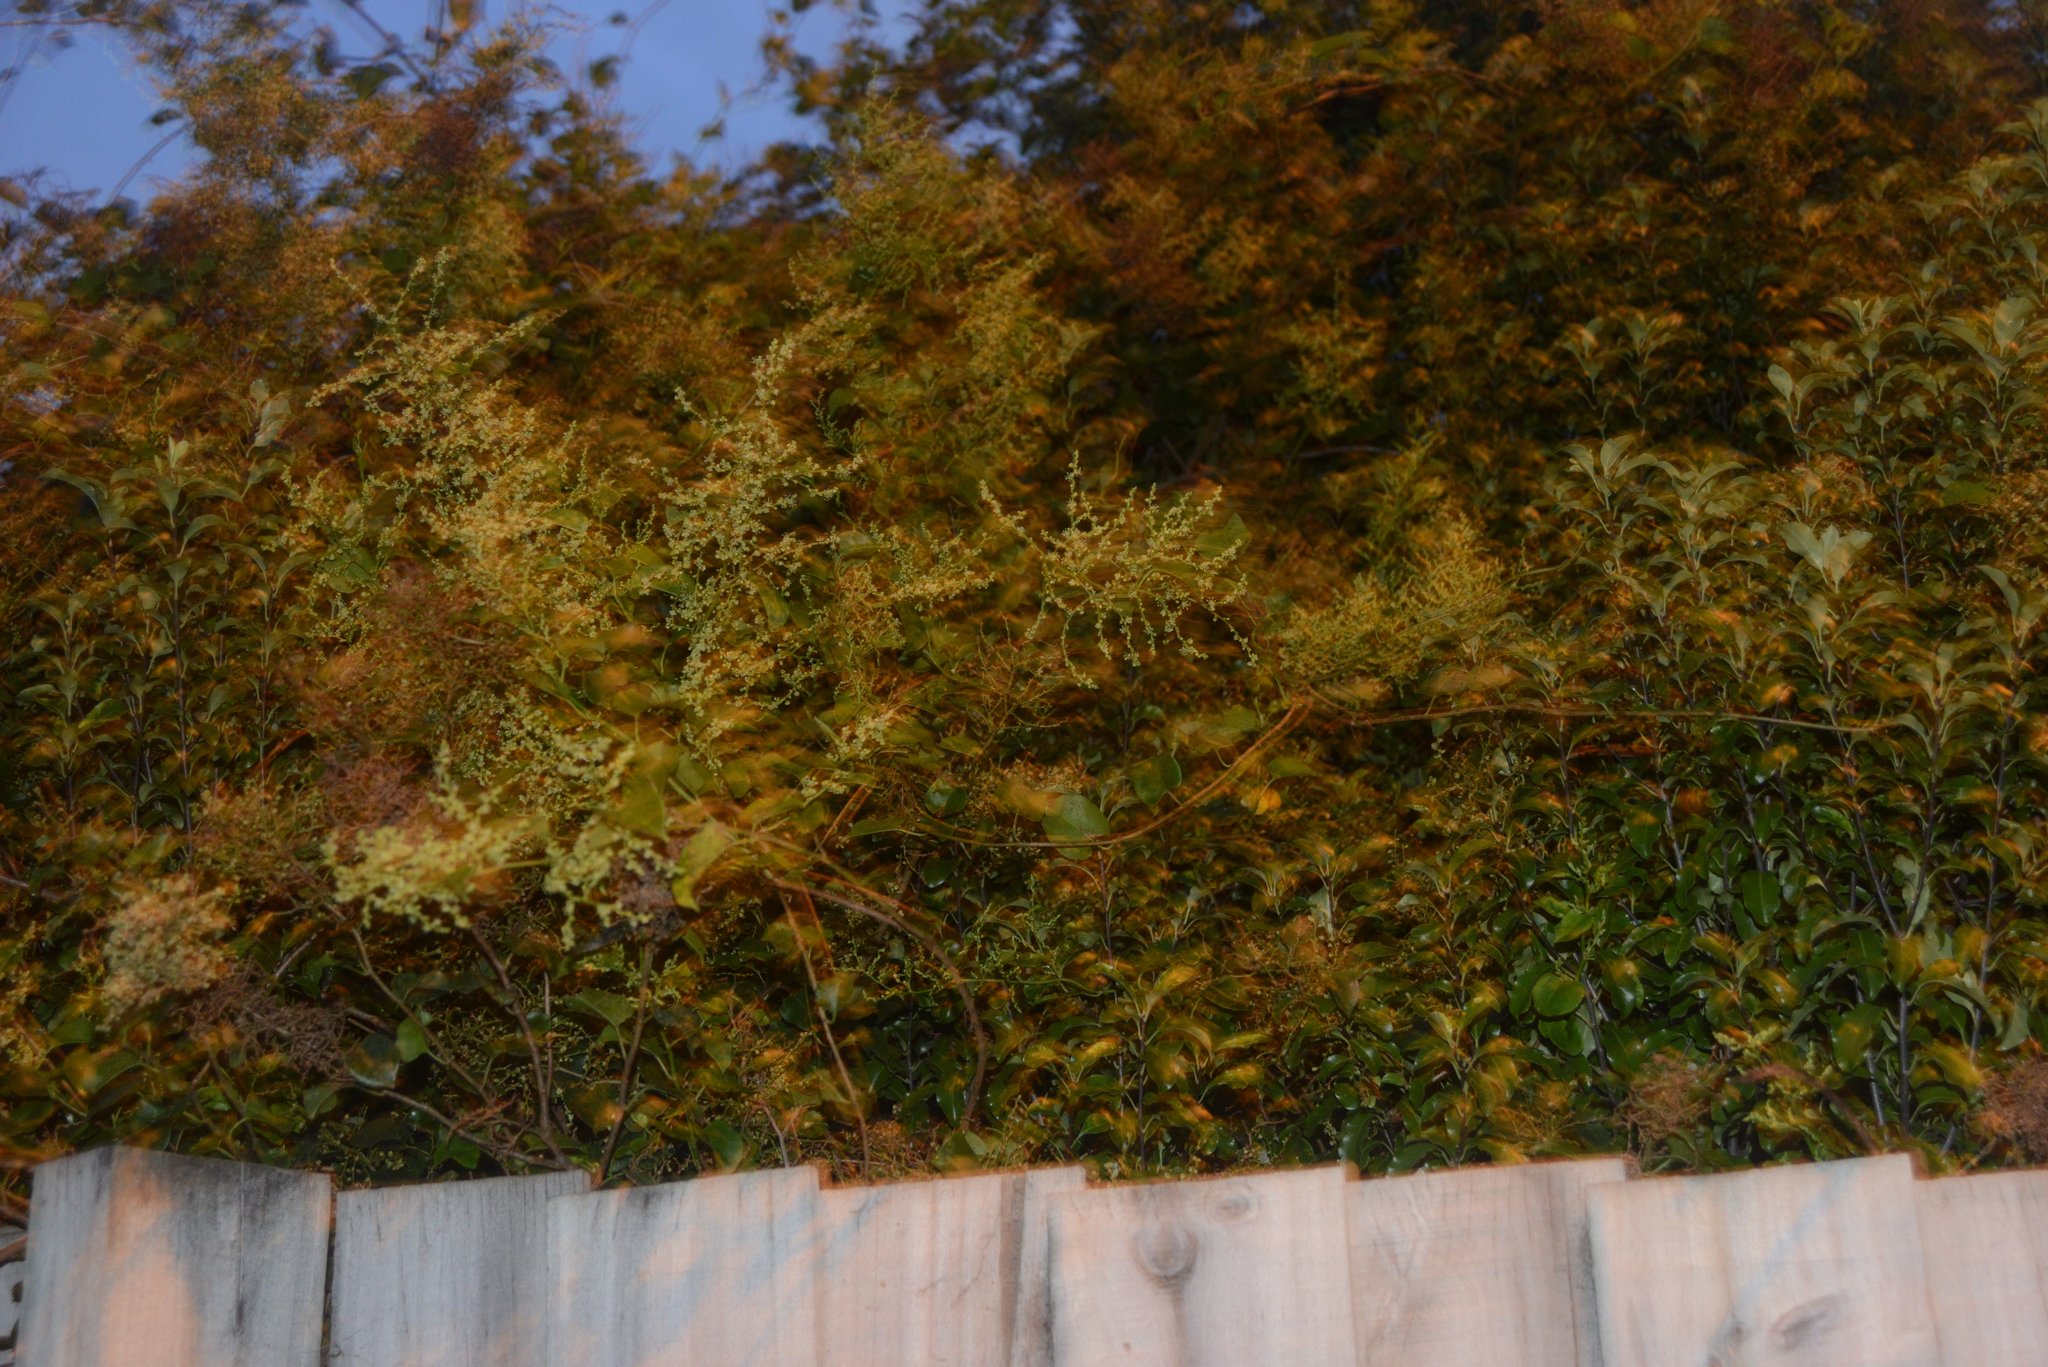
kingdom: Plantae
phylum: Tracheophyta
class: Magnoliopsida
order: Caryophyllales
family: Polygonaceae
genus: Muehlenbeckia
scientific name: Muehlenbeckia australis
